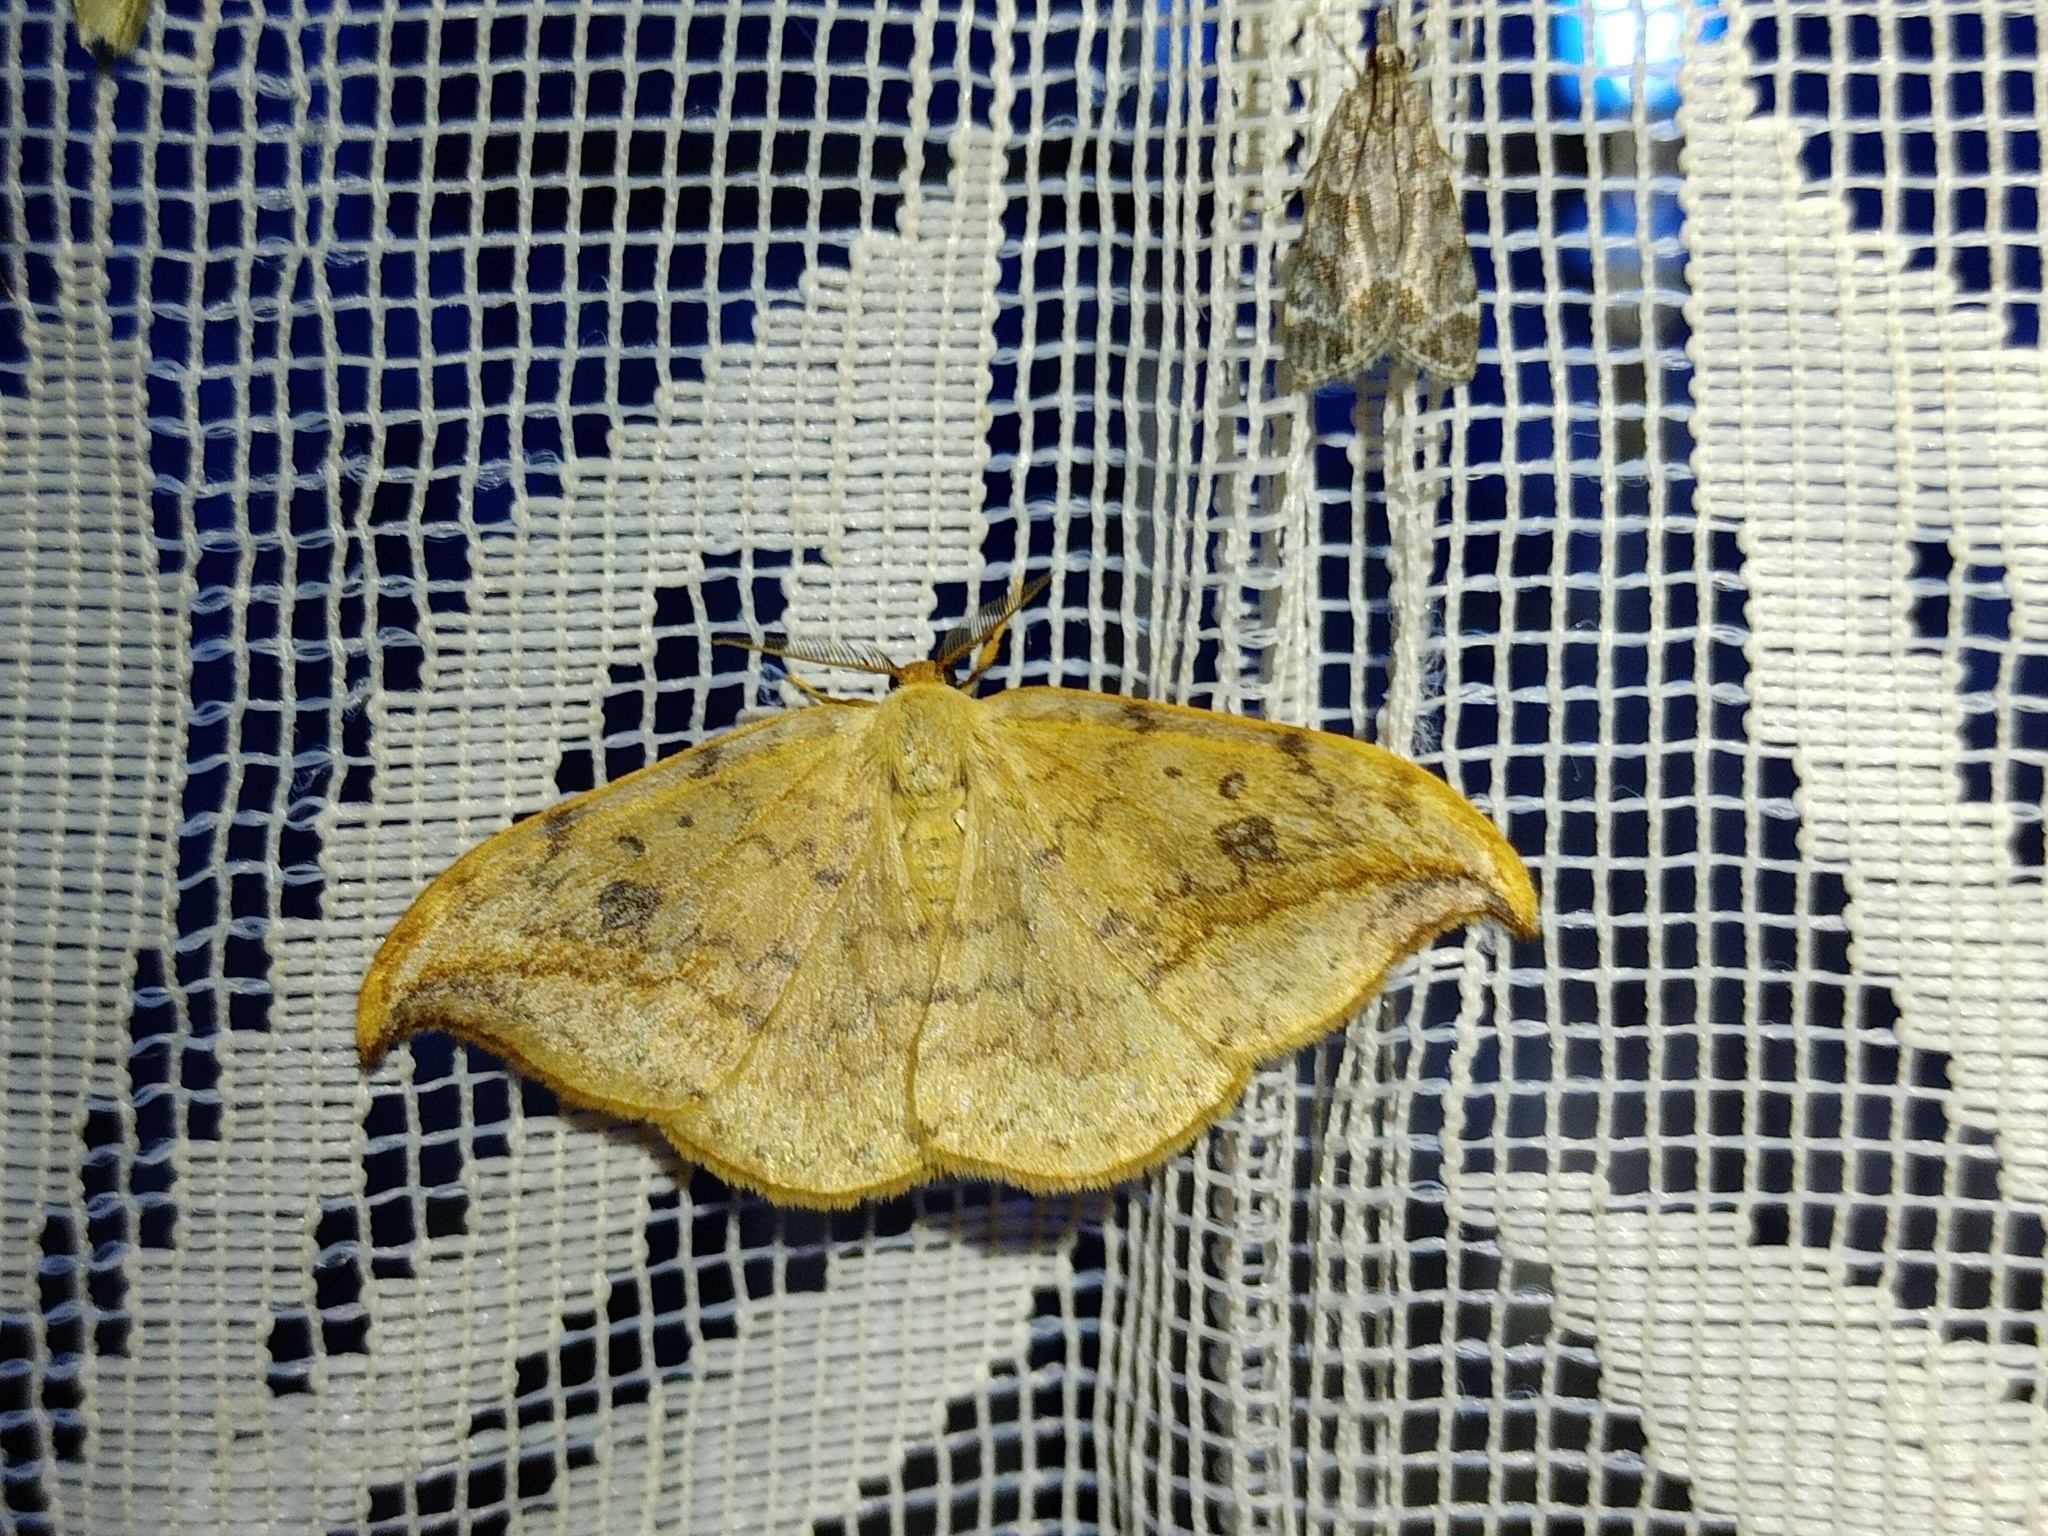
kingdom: Animalia
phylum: Arthropoda
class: Insecta
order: Lepidoptera
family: Drepanidae
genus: Drepana
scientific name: Drepana falcataria
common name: Pebble hook-tip
